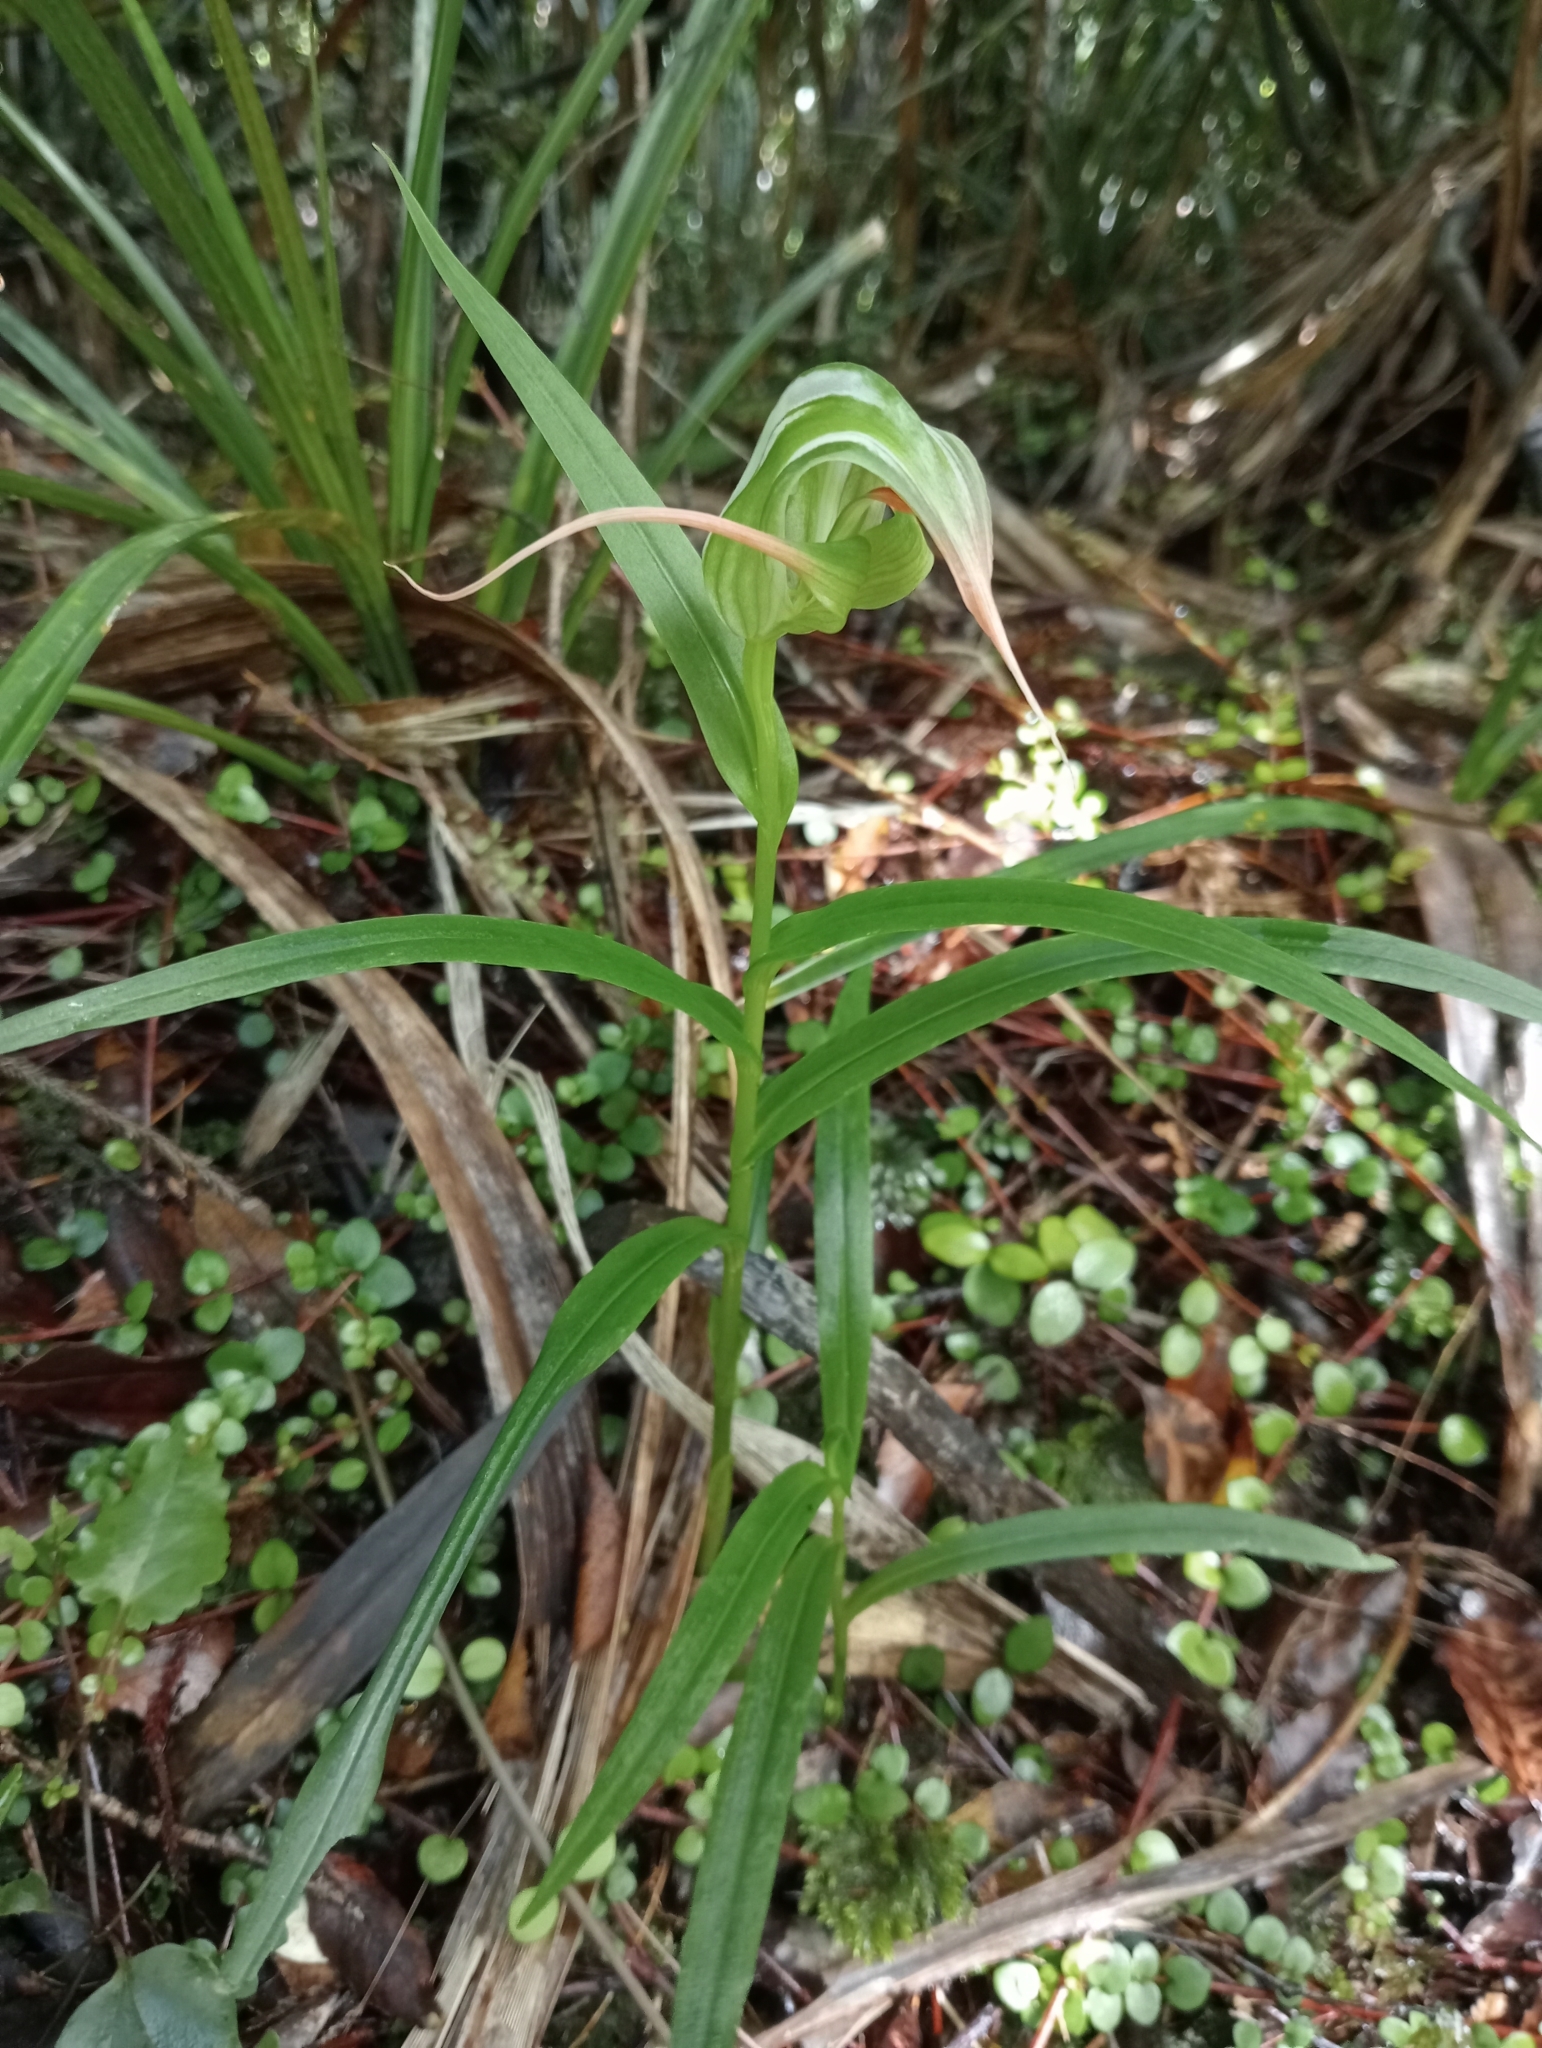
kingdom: Plantae
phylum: Tracheophyta
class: Liliopsida
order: Asparagales
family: Orchidaceae
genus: Pterostylis
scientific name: Pterostylis banksii
